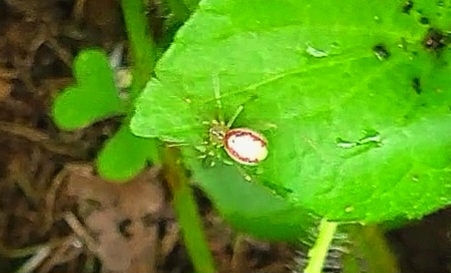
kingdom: Animalia
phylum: Arthropoda
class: Arachnida
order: Araneae
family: Theridiidae
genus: Enoplognatha
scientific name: Enoplognatha ovata
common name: Common candy-striped spider
